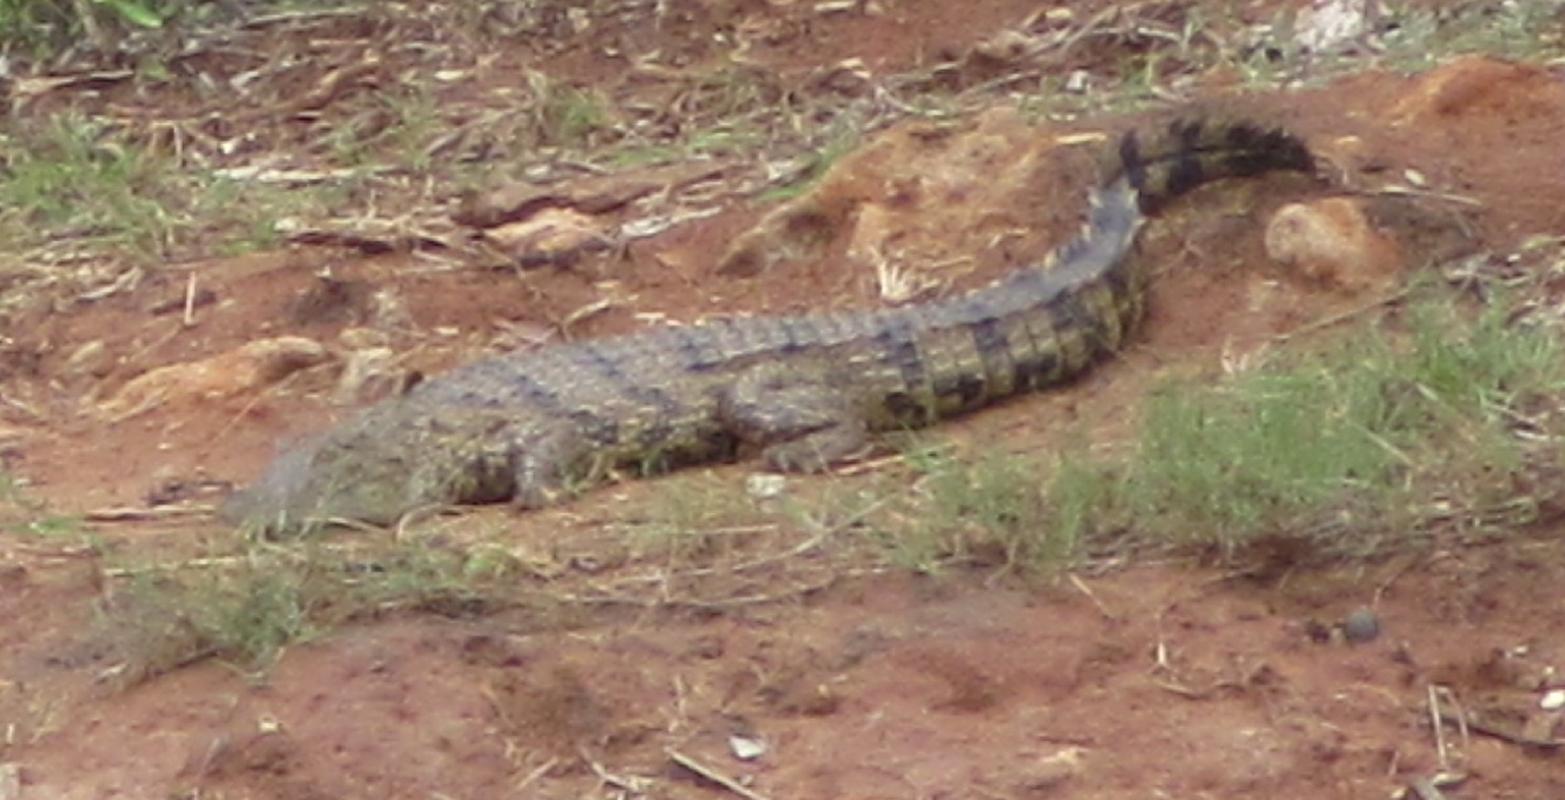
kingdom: Animalia
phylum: Chordata
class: Crocodylia
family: Crocodylidae
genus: Crocodylus
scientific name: Crocodylus niloticus
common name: Nile crocodile
